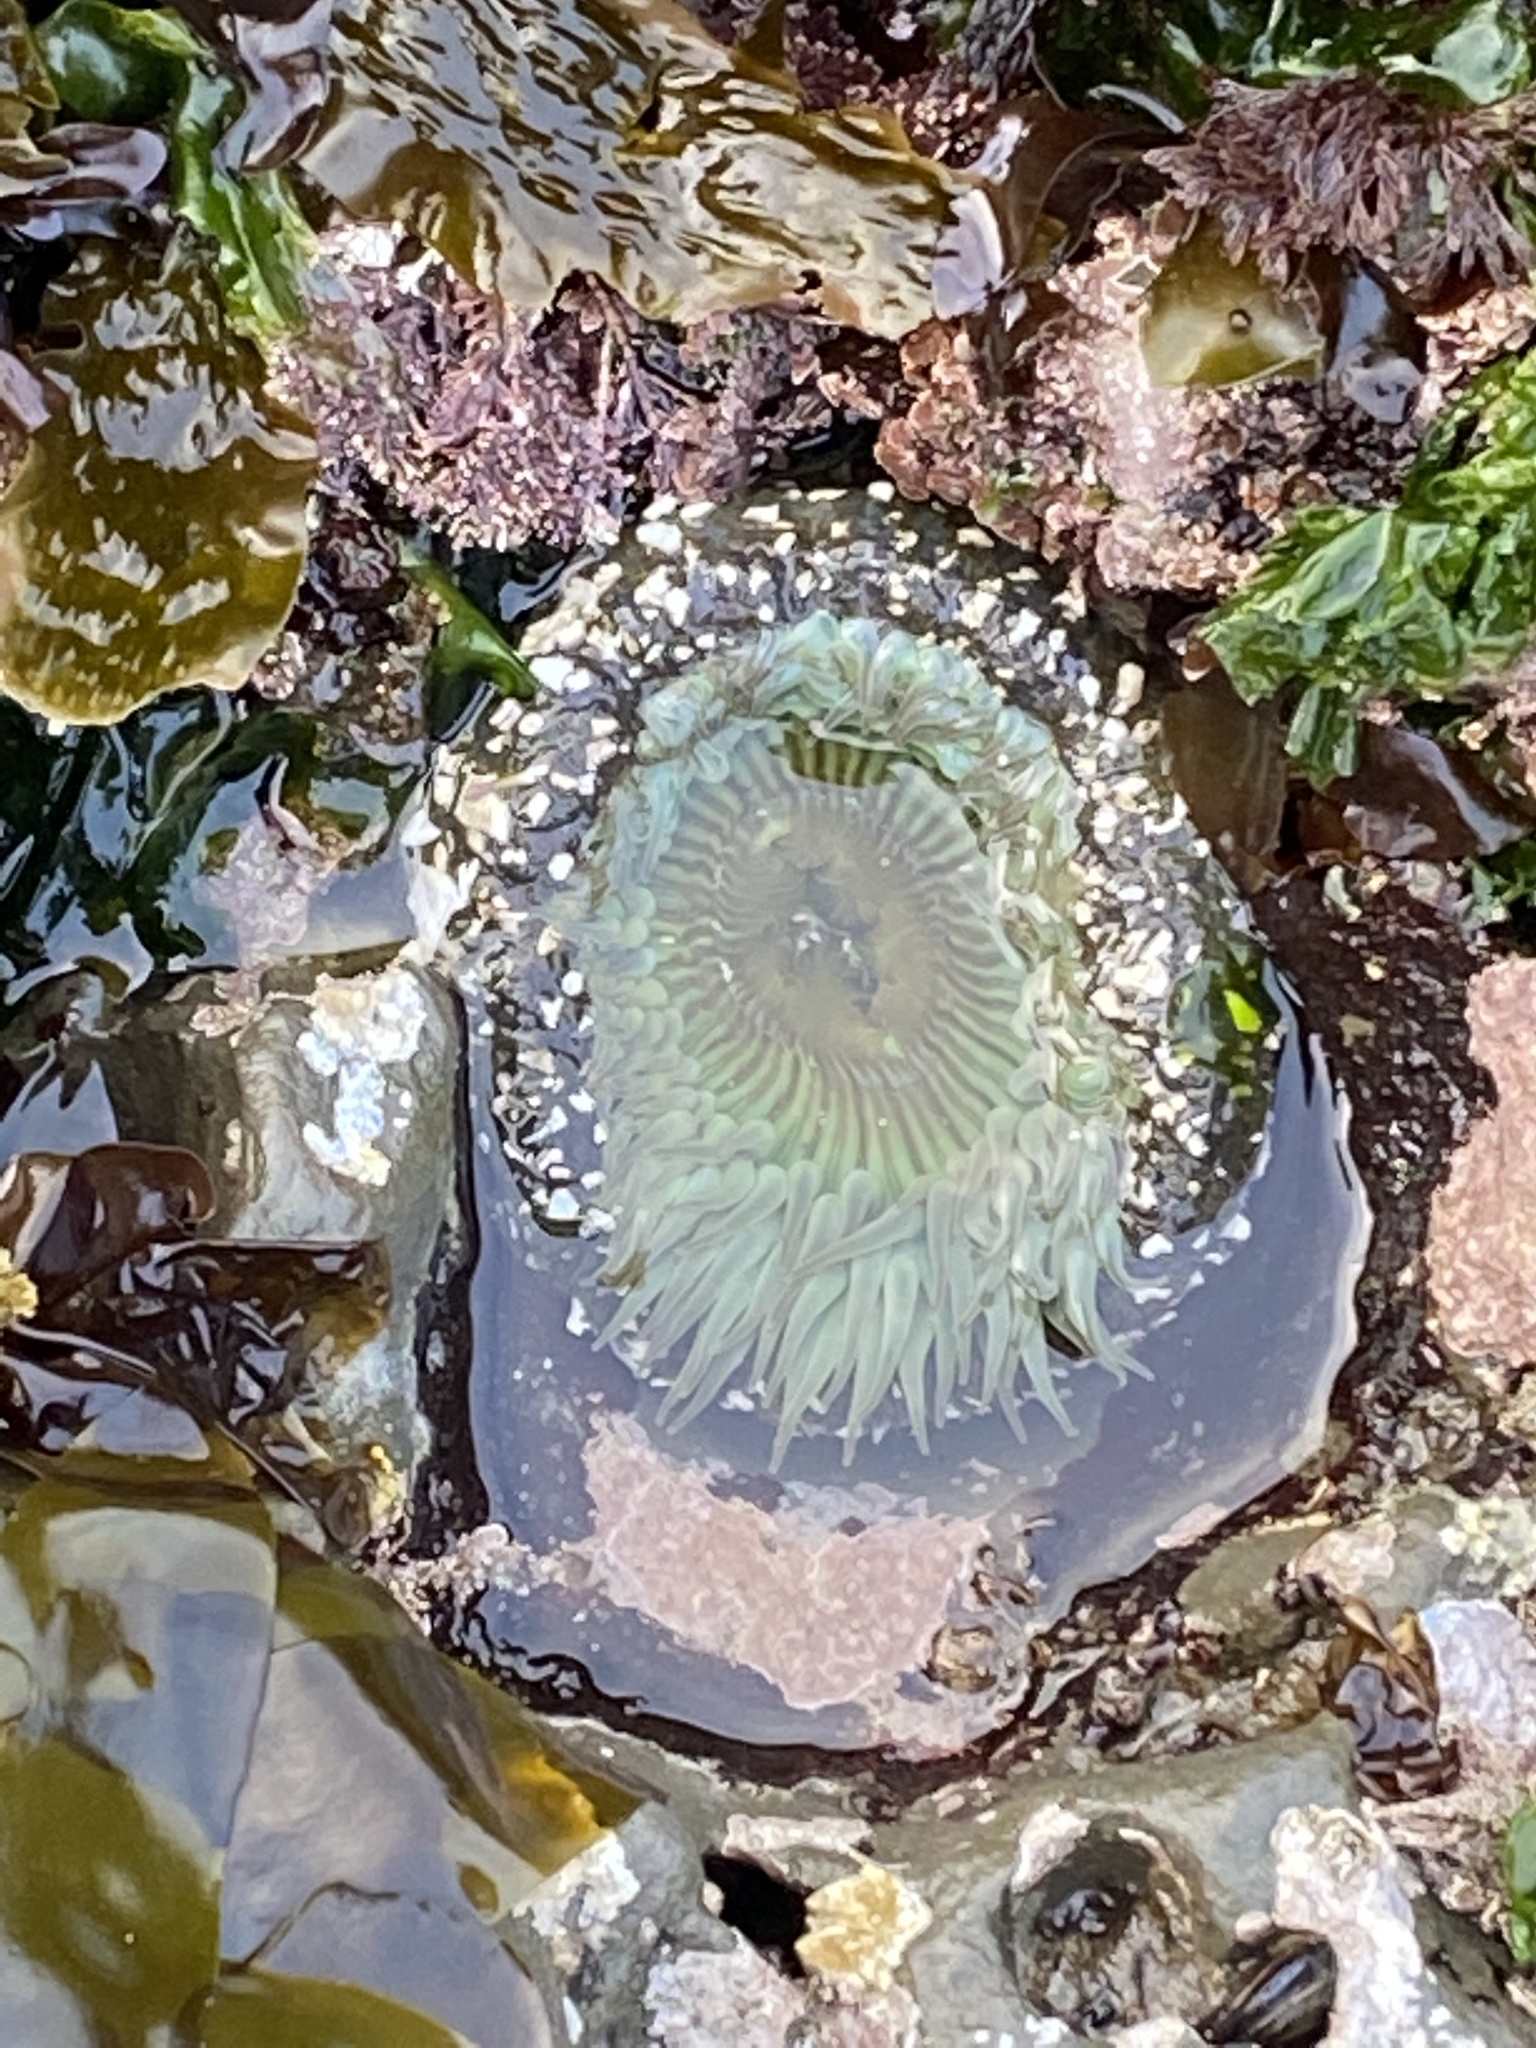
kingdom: Animalia
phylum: Cnidaria
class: Anthozoa
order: Actiniaria
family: Actiniidae
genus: Anthopleura
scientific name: Anthopleura sola
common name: Sun anemone
